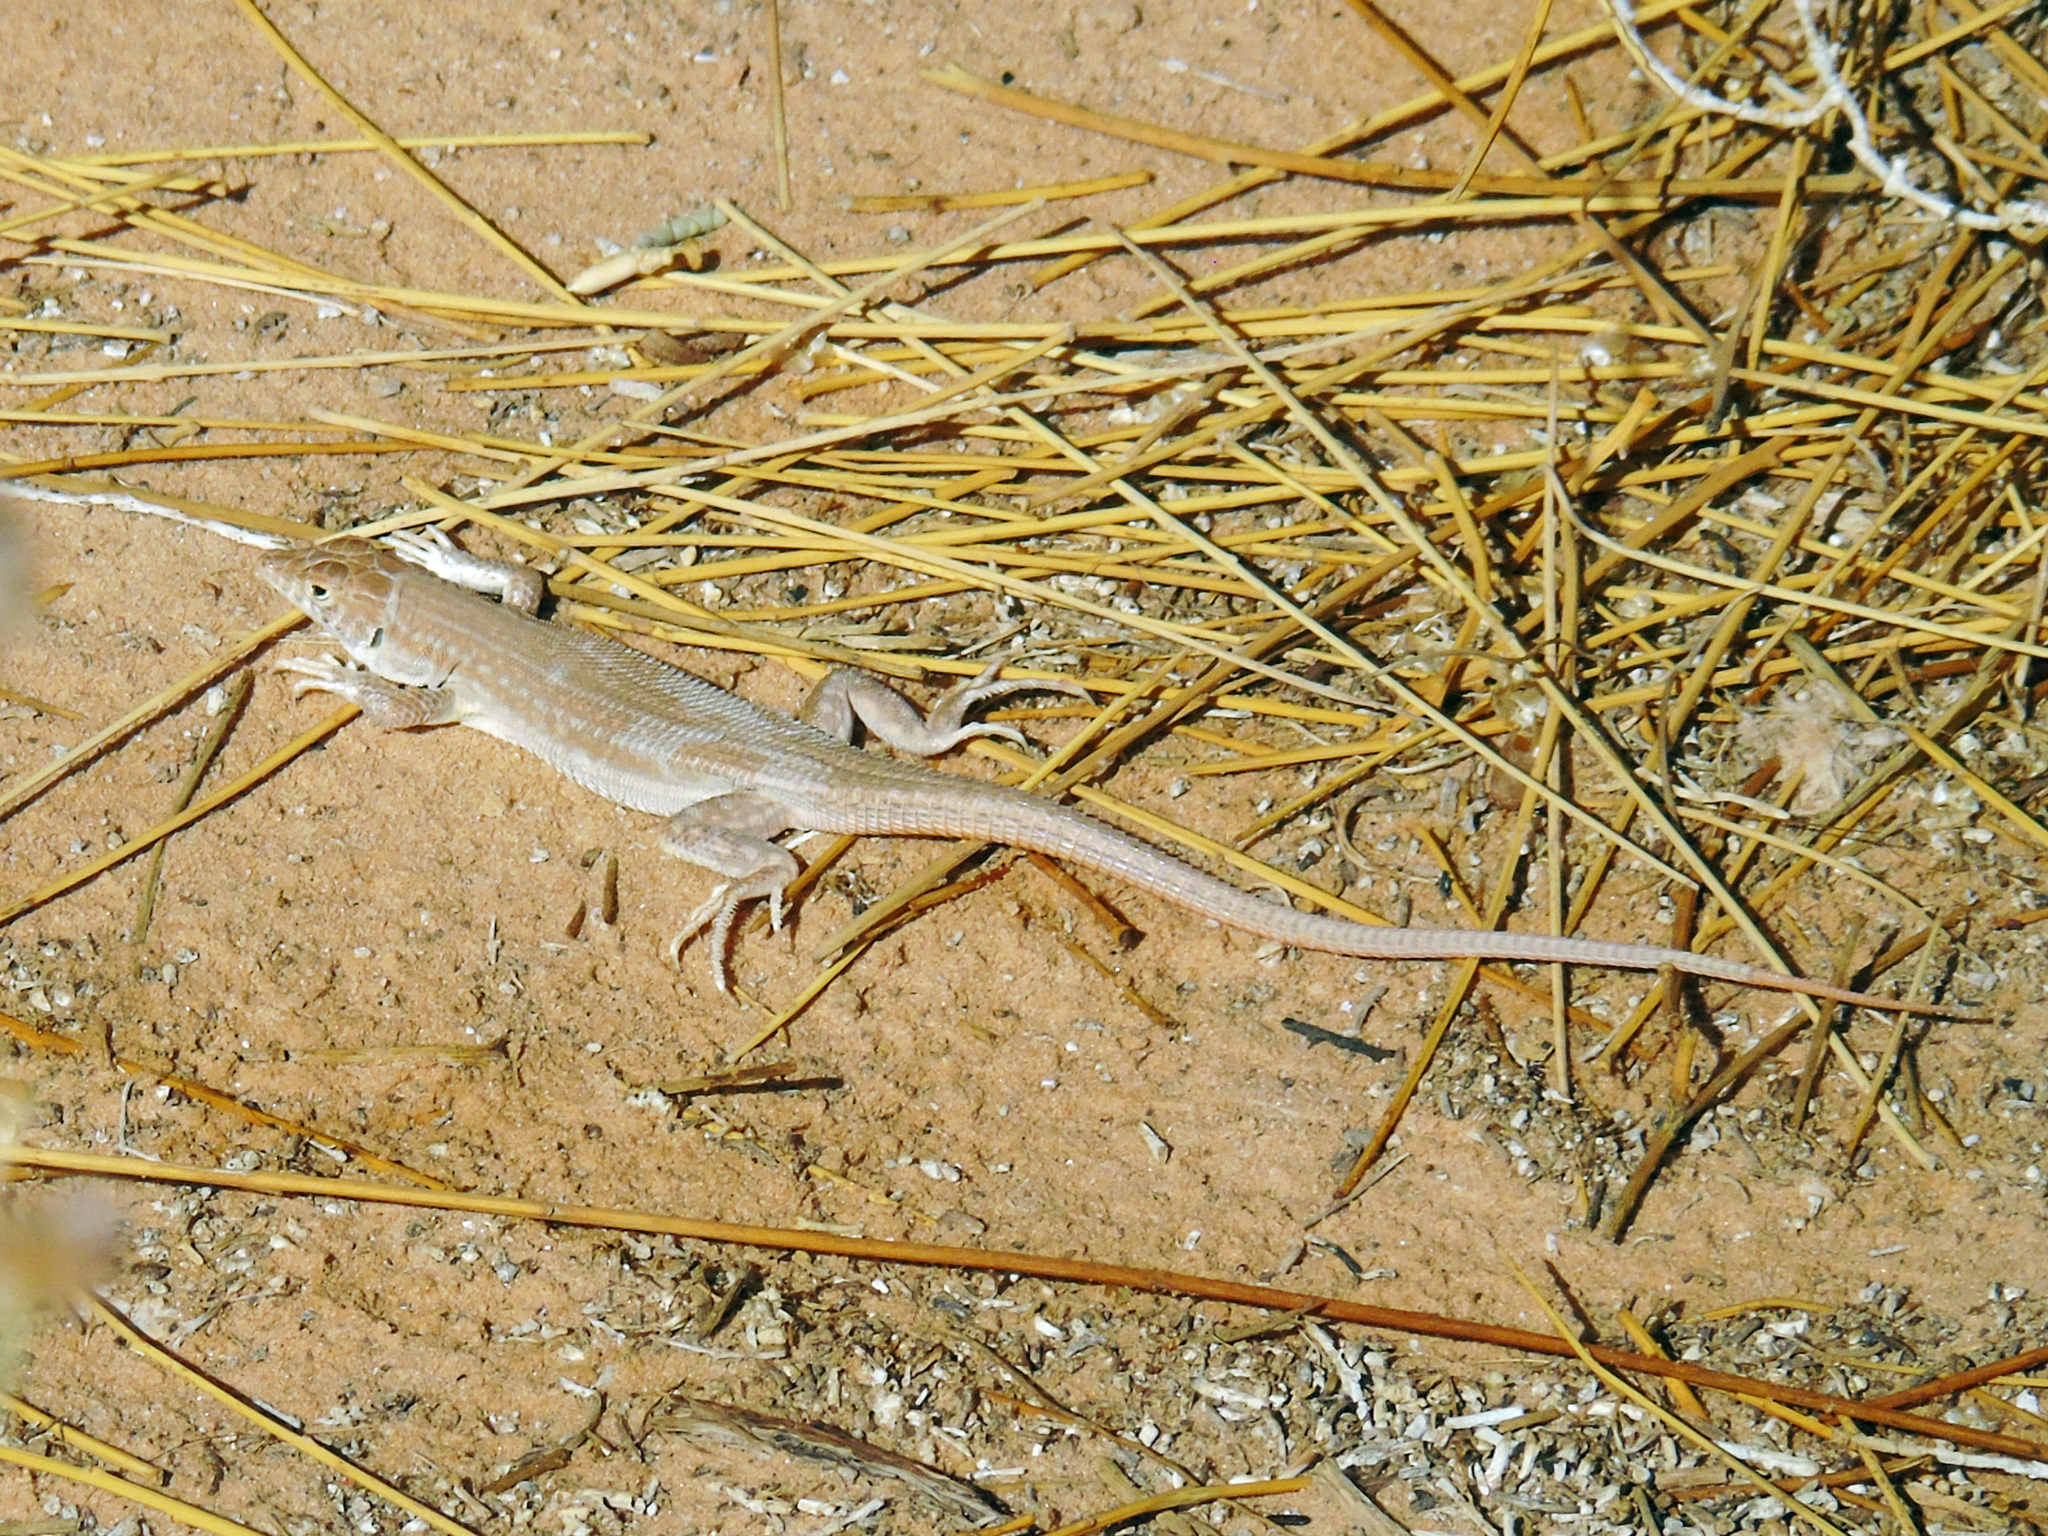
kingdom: Animalia
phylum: Chordata
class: Squamata
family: Lacertidae
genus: Acanthodactylus
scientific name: Acanthodactylus boskianus
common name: Bosc’s fringe-toed lizard
